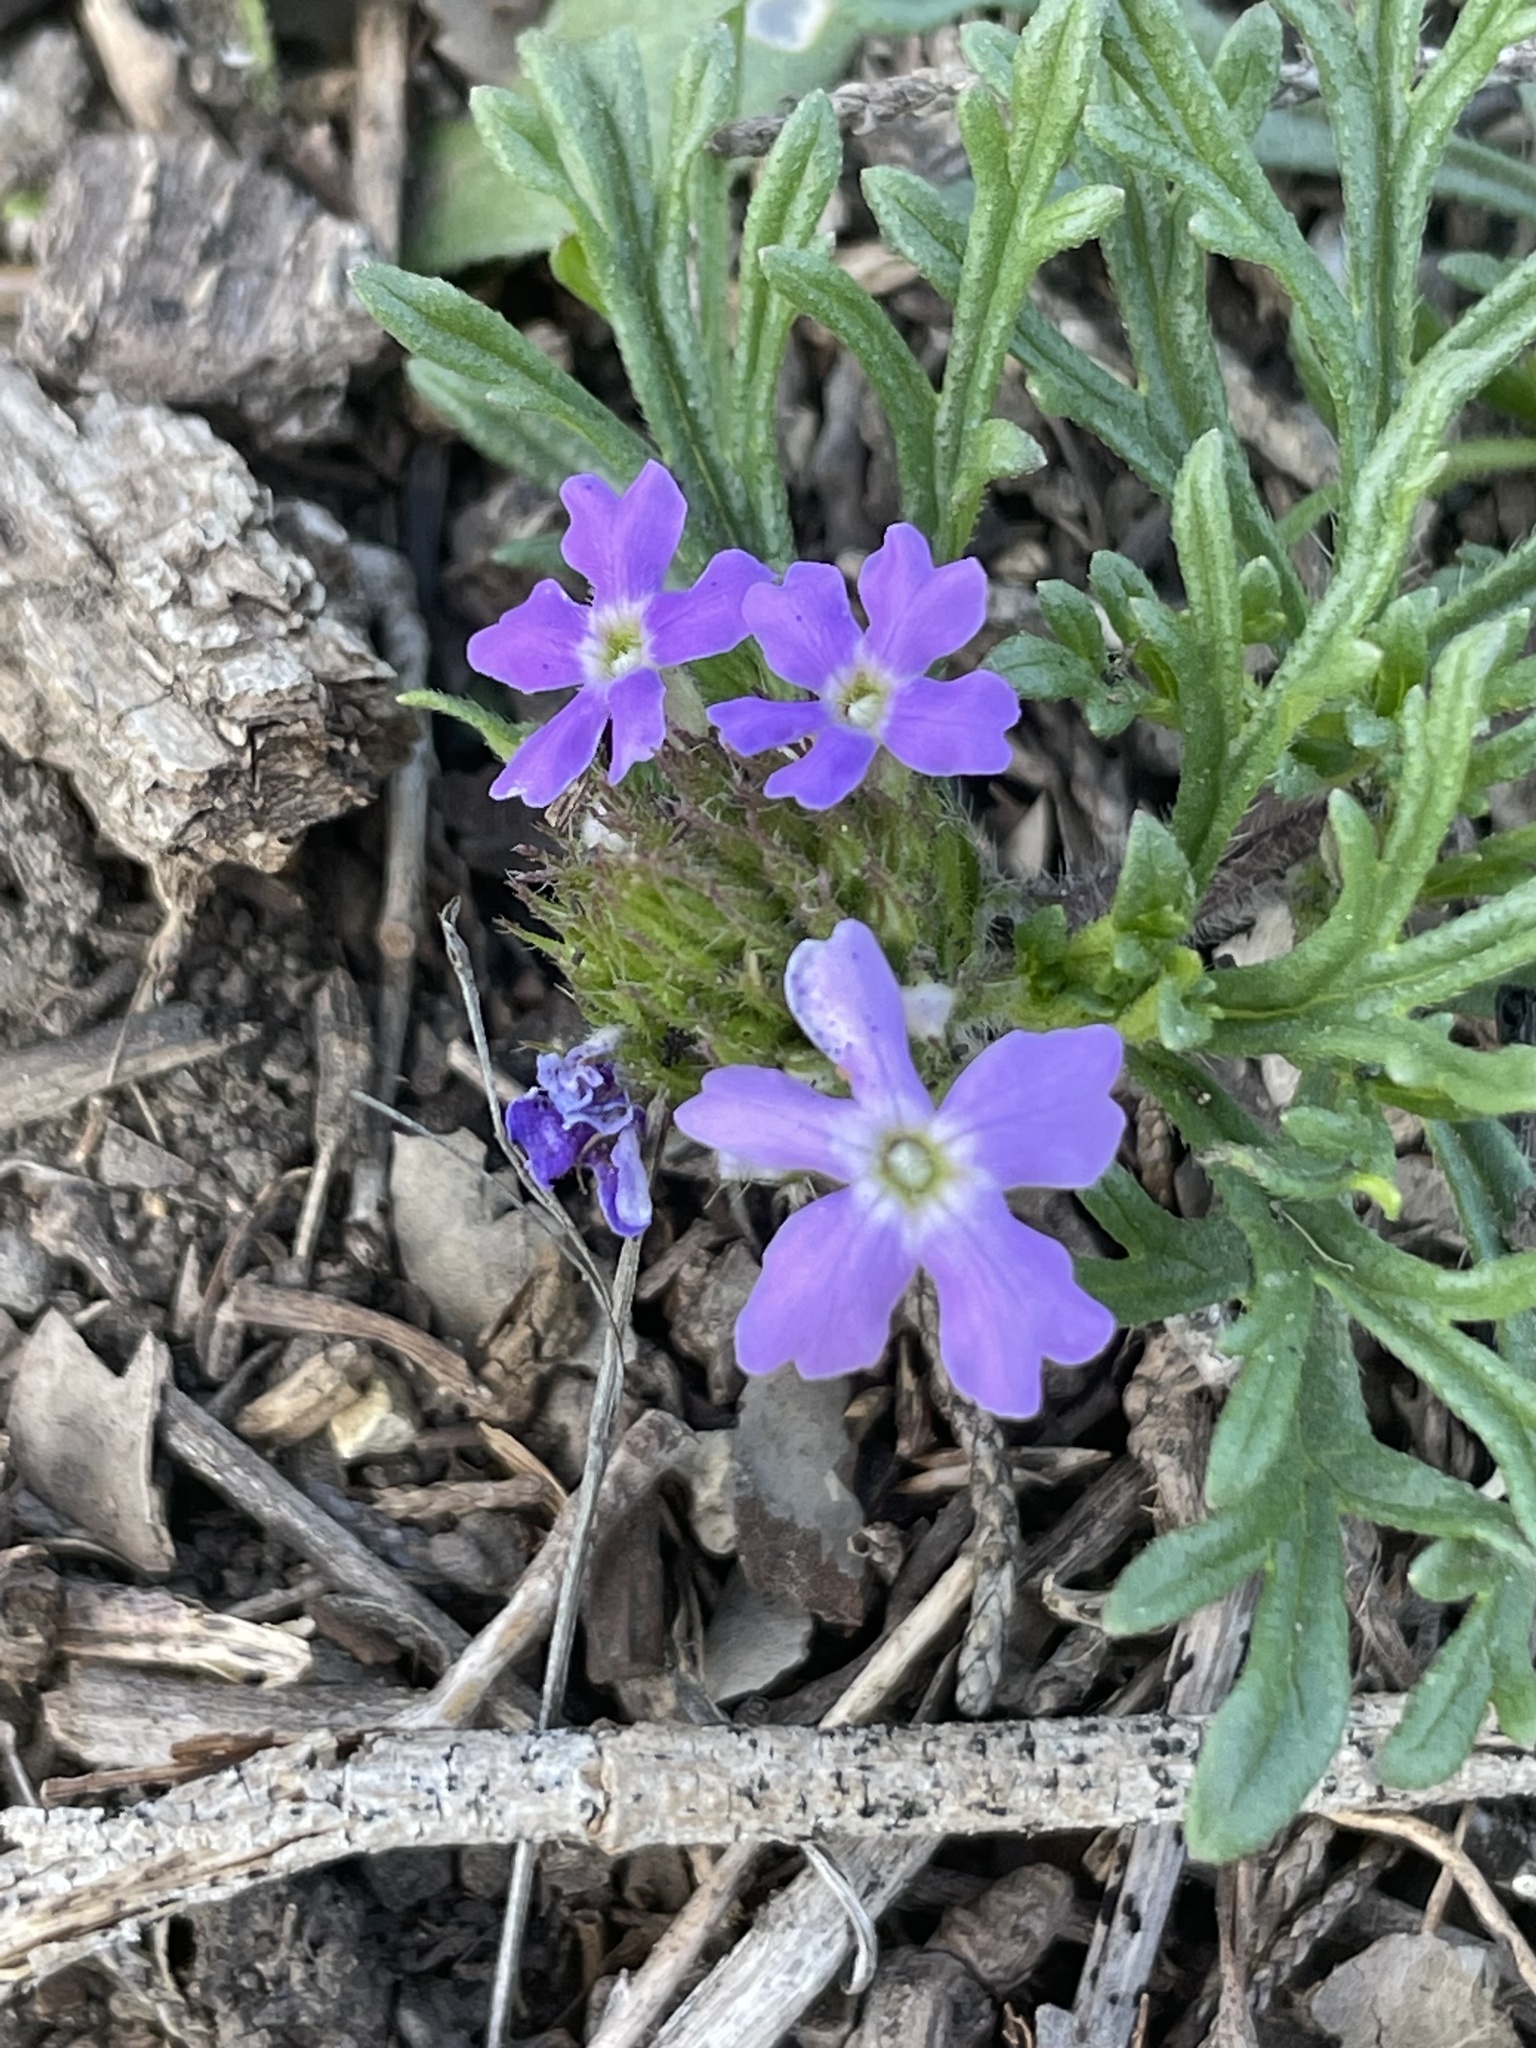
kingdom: Plantae
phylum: Tracheophyta
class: Magnoliopsida
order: Lamiales
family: Verbenaceae
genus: Verbena
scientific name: Verbena bipinnatifida
